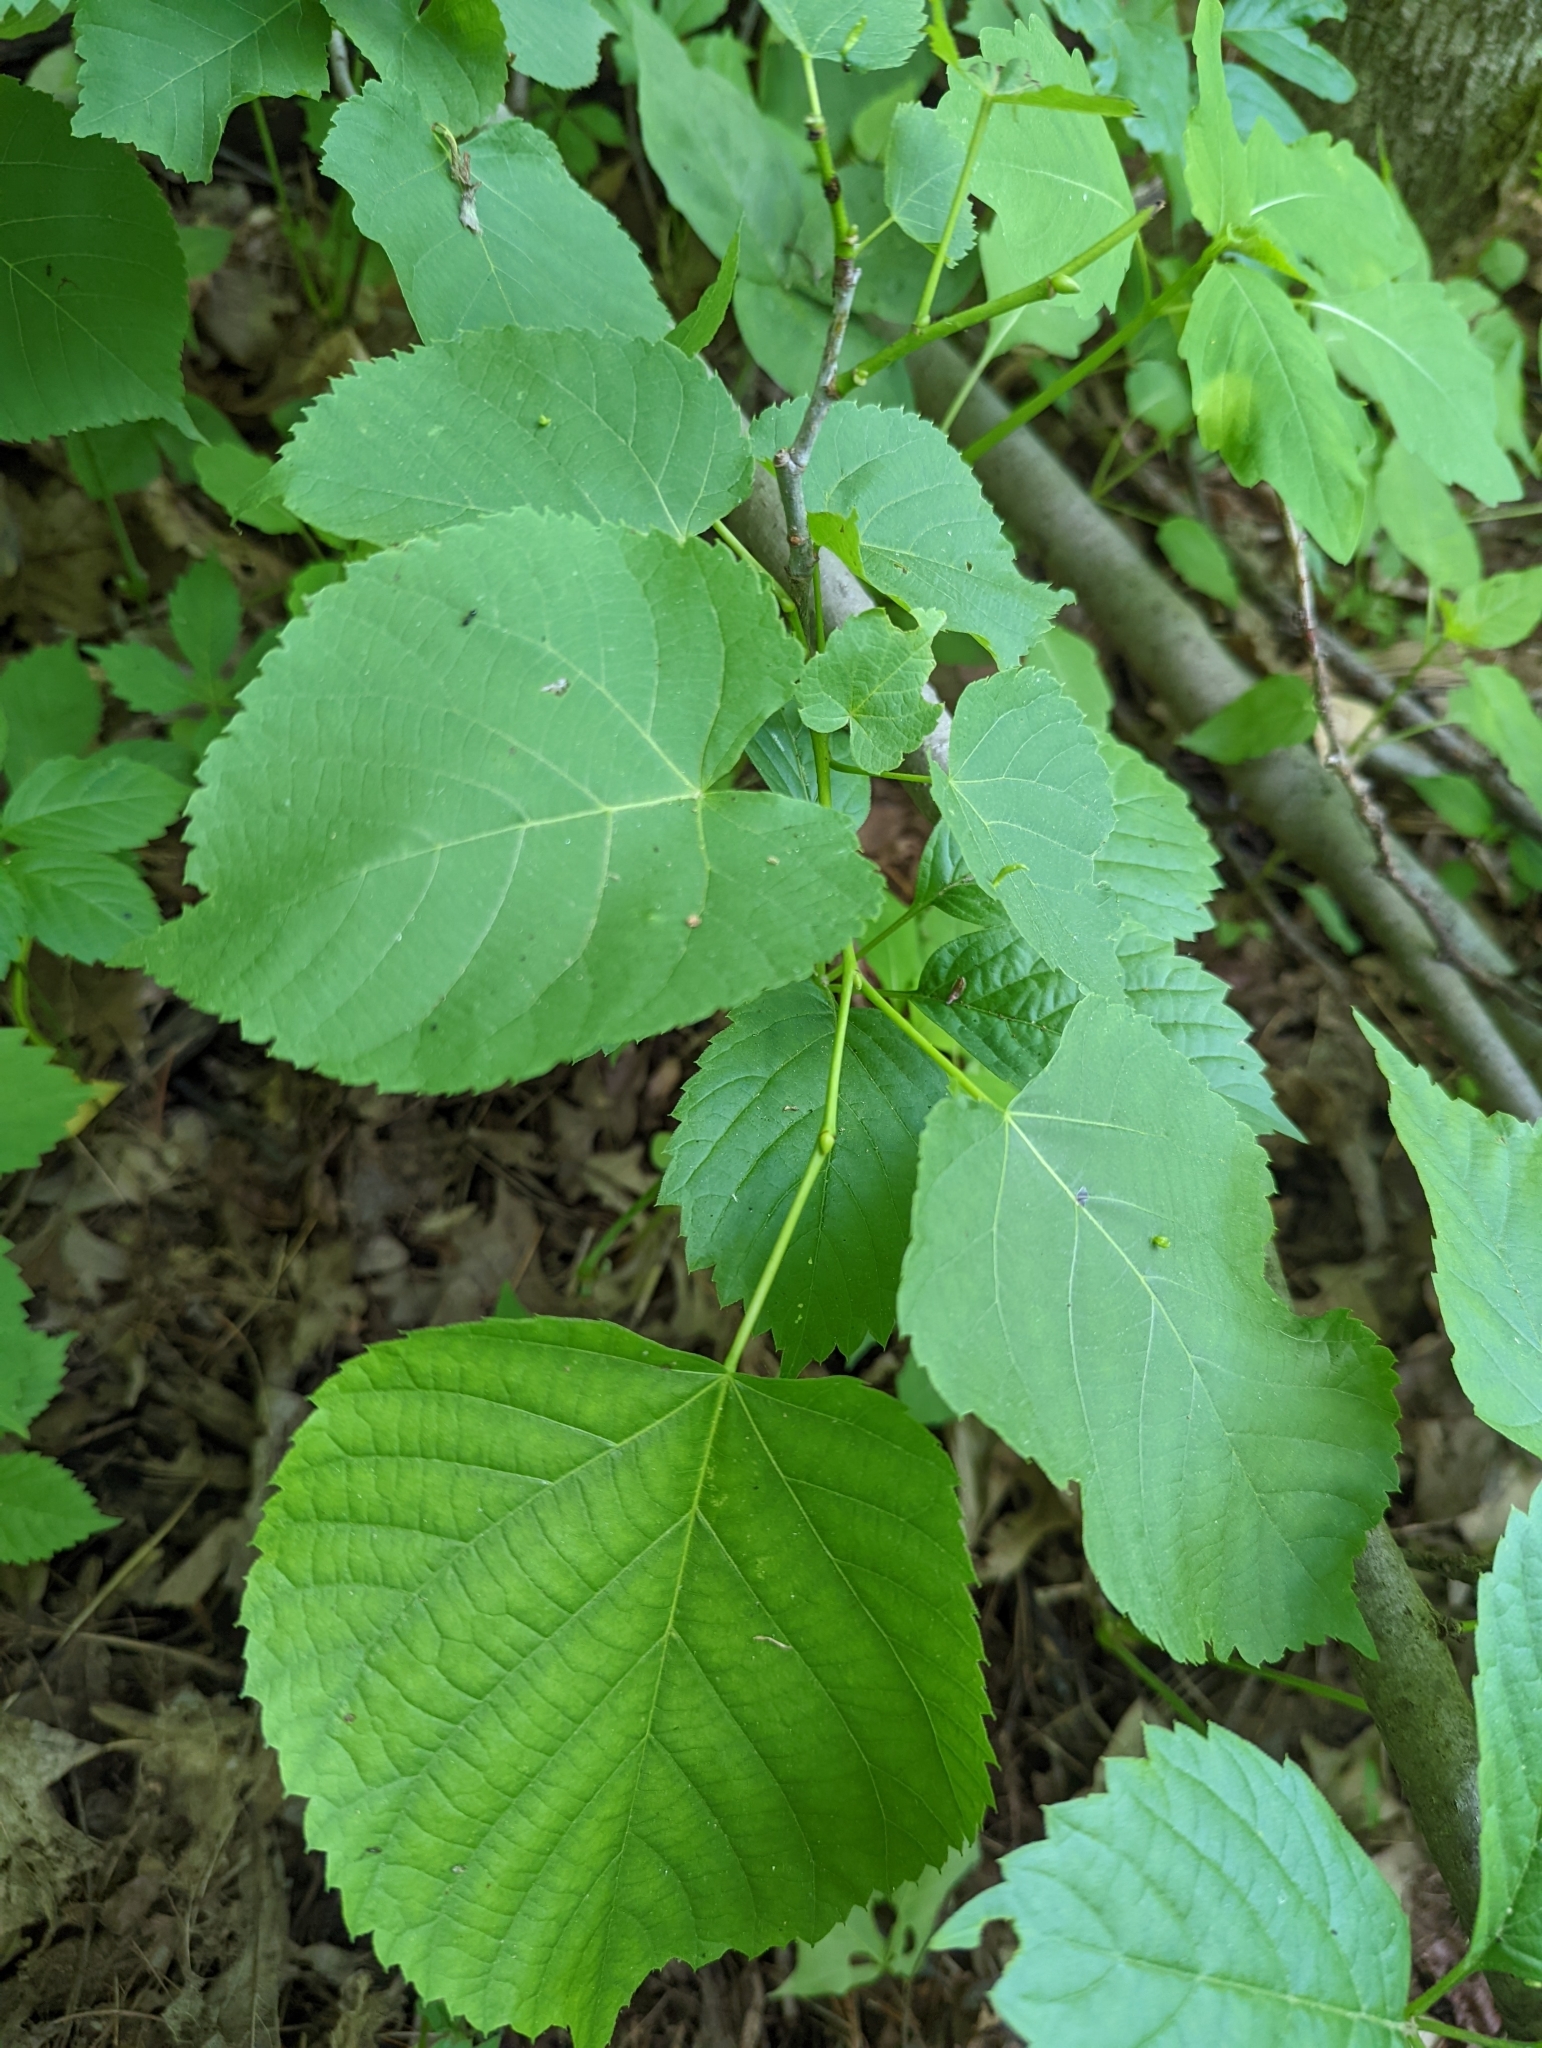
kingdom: Plantae
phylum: Tracheophyta
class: Magnoliopsida
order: Malvales
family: Malvaceae
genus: Tilia
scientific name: Tilia americana
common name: Basswood
